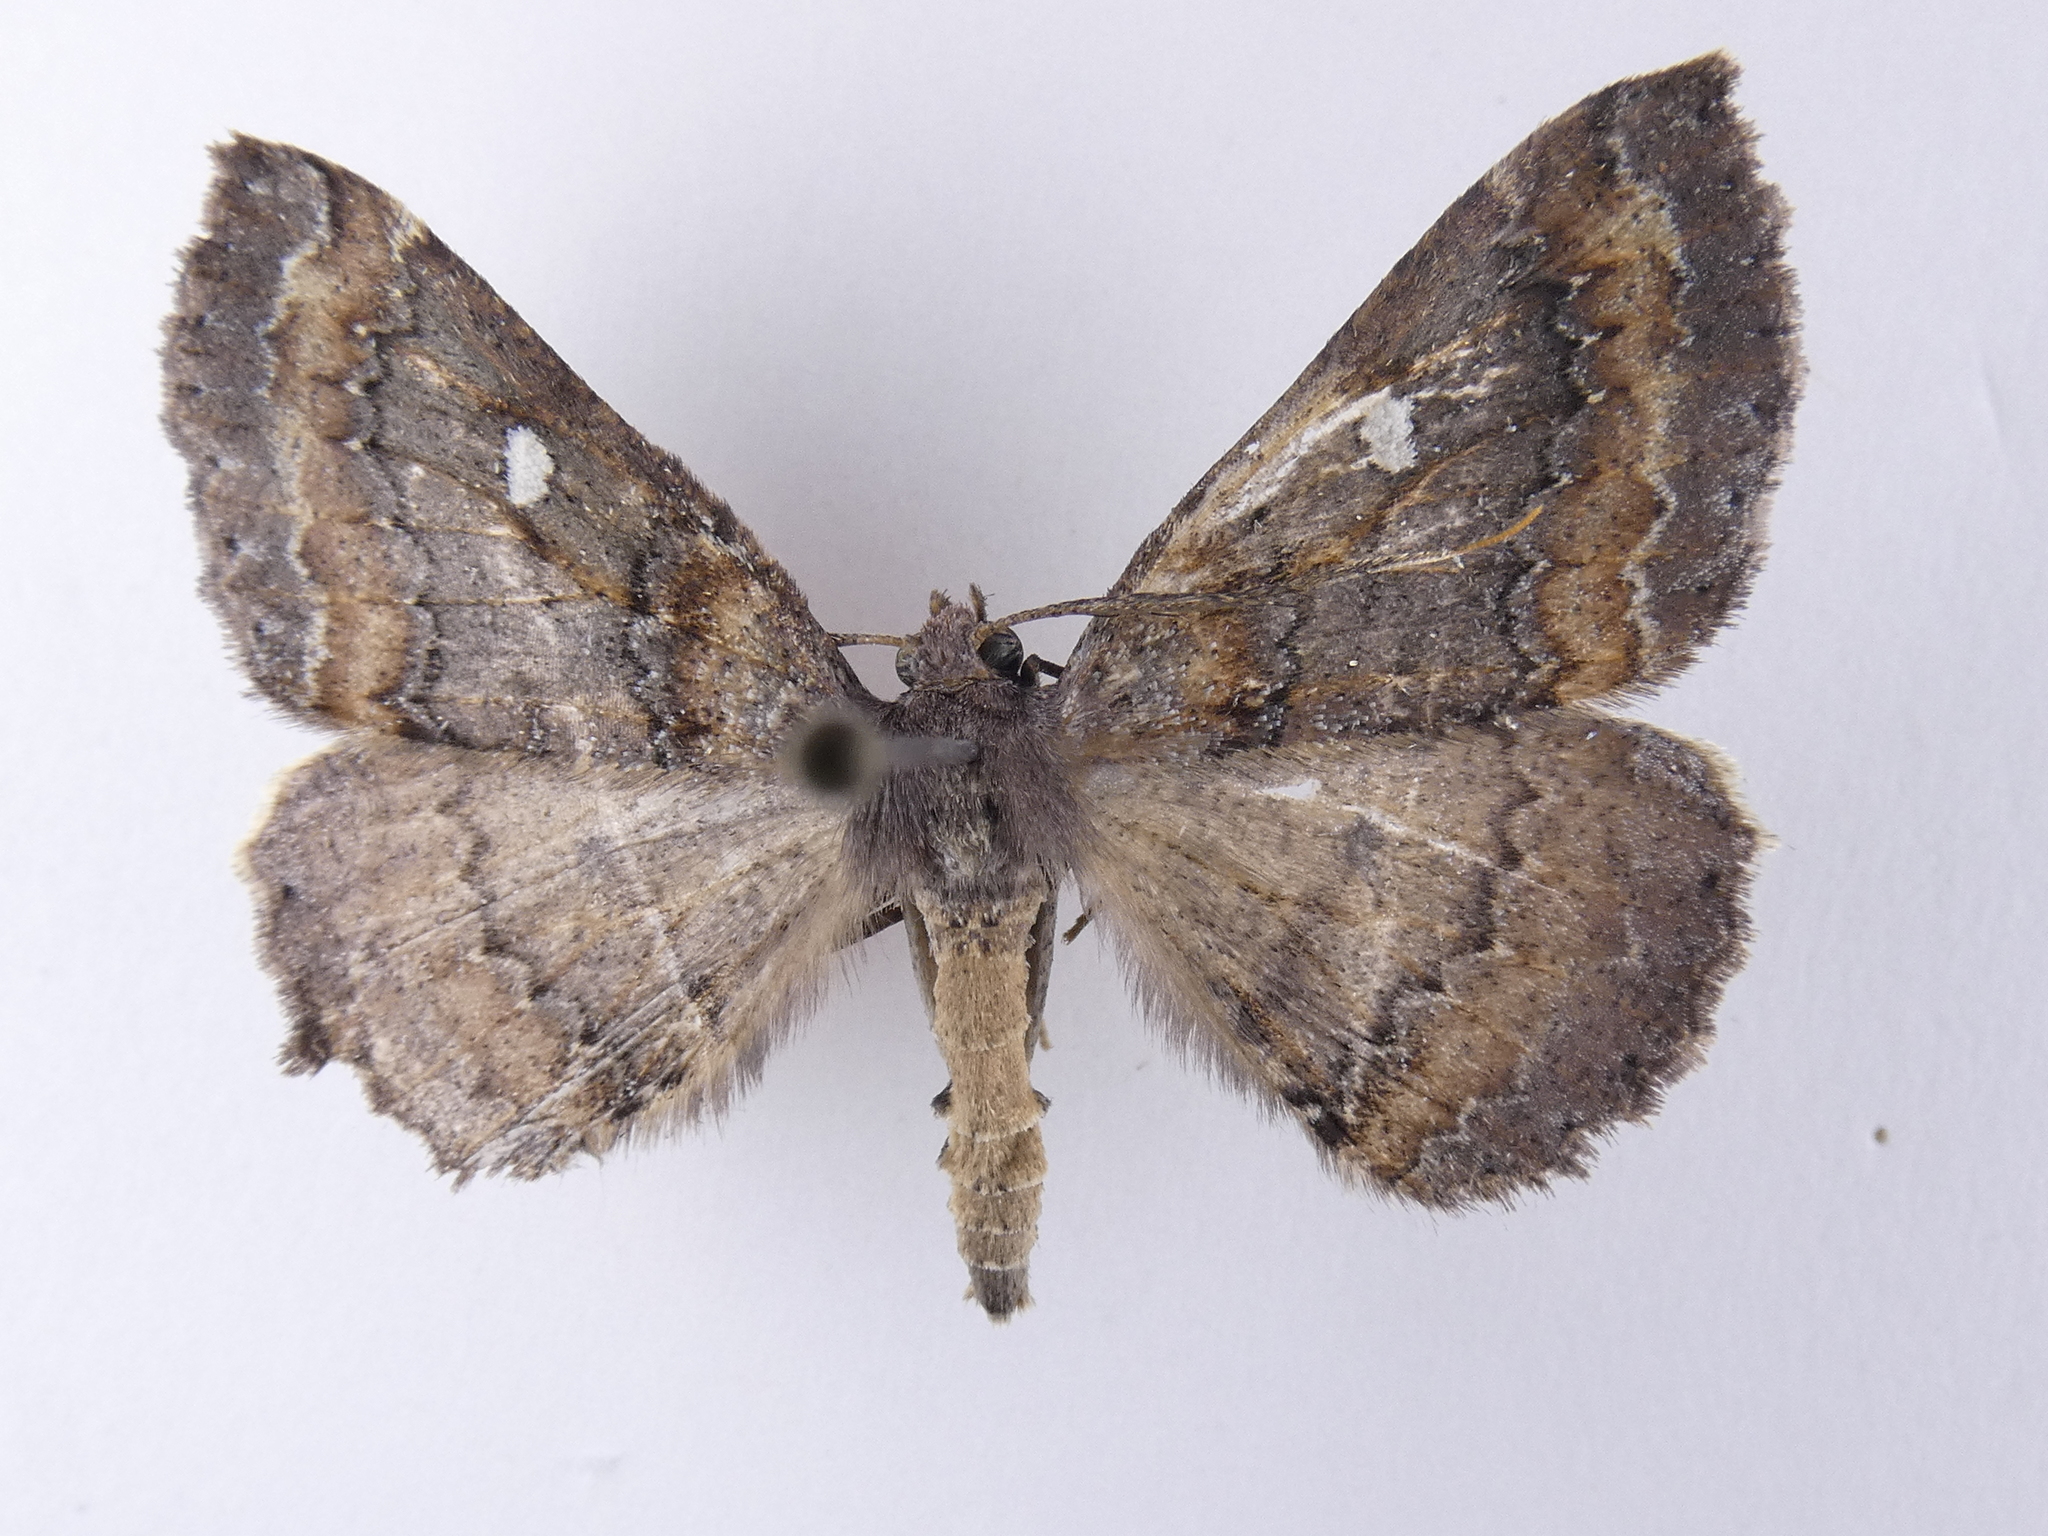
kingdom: Animalia
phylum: Arthropoda
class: Insecta
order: Lepidoptera
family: Geometridae
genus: Cleora
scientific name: Cleora scriptaria
